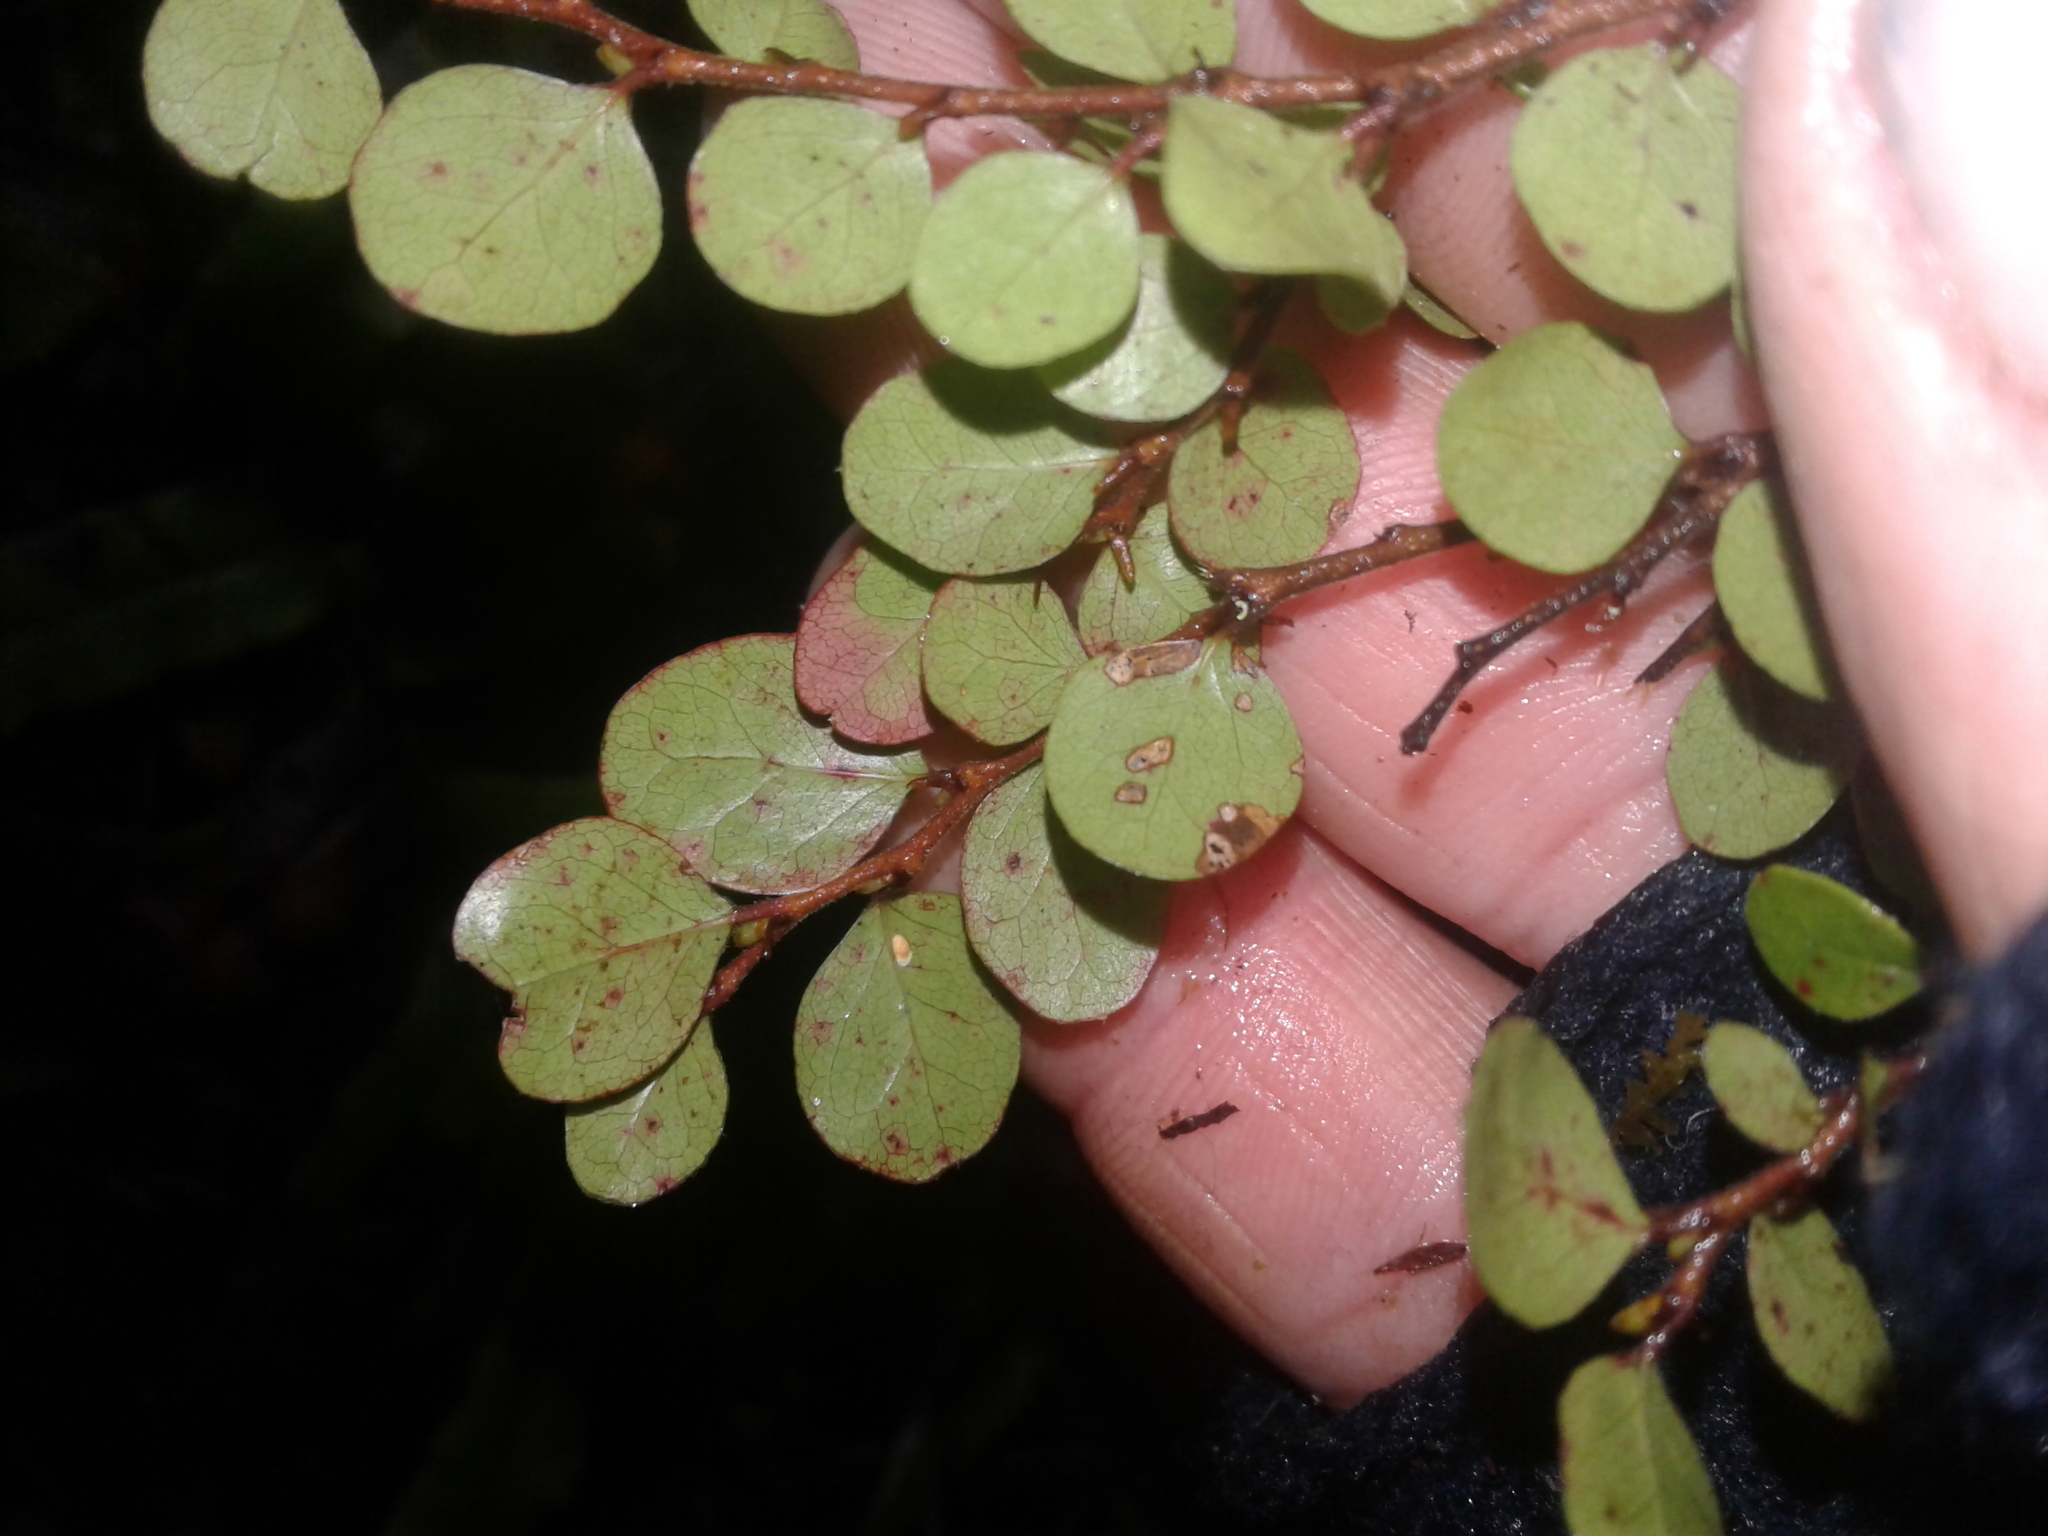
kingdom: Plantae
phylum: Tracheophyta
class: Magnoliopsida
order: Fagales
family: Nothofagaceae
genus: Nothofagus
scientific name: Nothofagus solandri
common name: Black beech
